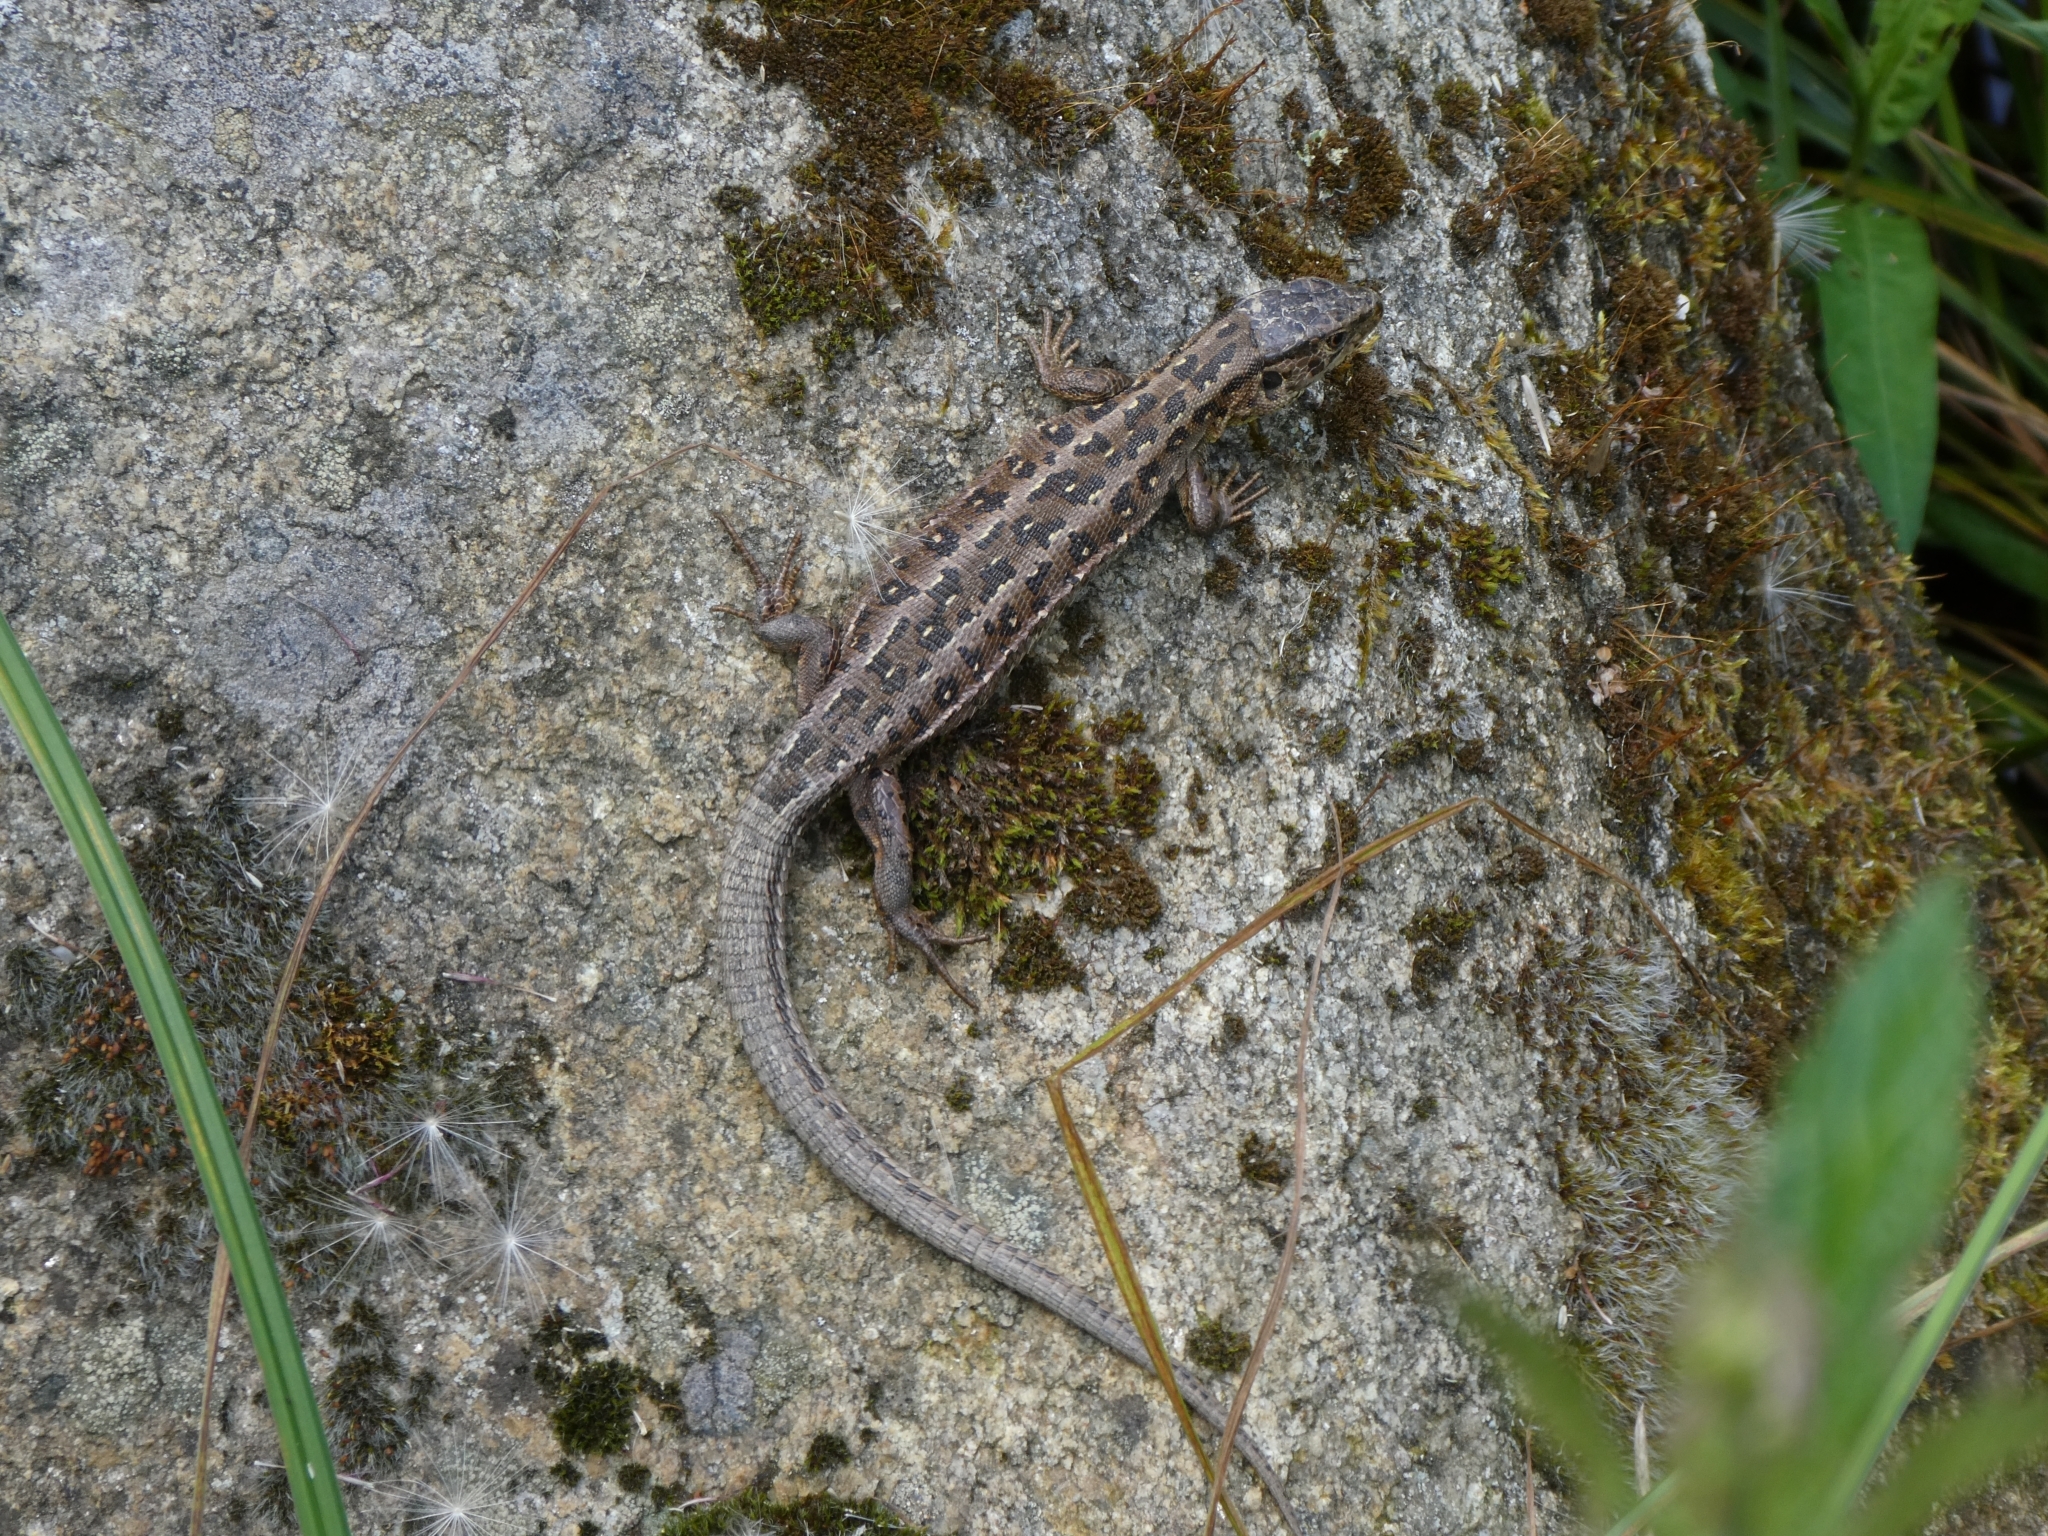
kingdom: Animalia
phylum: Chordata
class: Squamata
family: Lacertidae
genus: Lacerta
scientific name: Lacerta agilis
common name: Sand lizard
